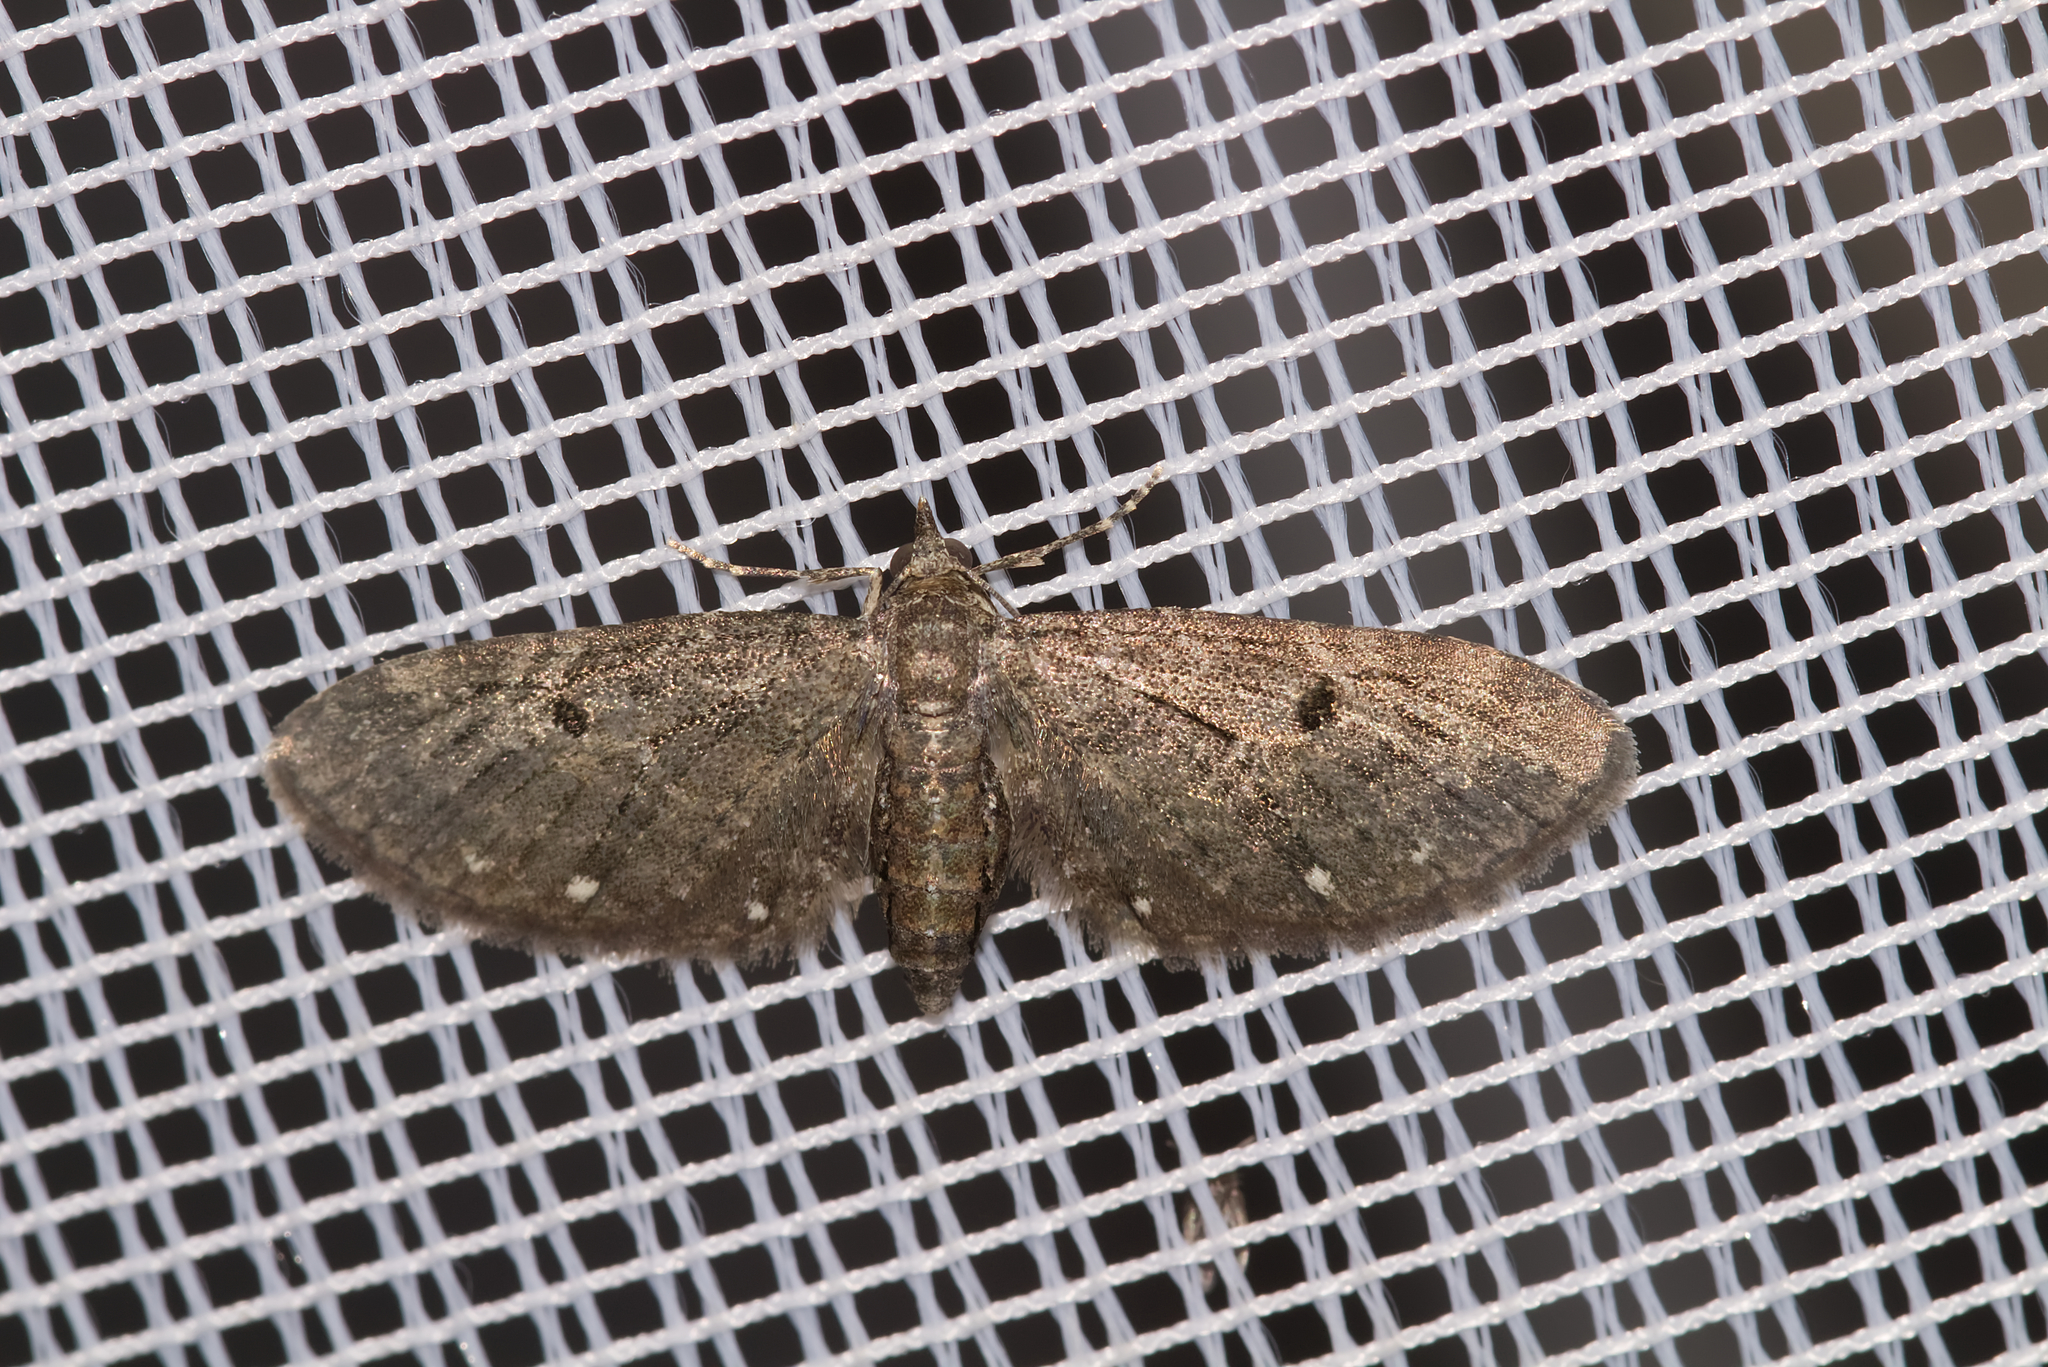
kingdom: Animalia
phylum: Arthropoda
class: Insecta
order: Lepidoptera
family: Geometridae
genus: Eupithecia
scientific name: Eupithecia tripunctaria
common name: White-spotted pug
